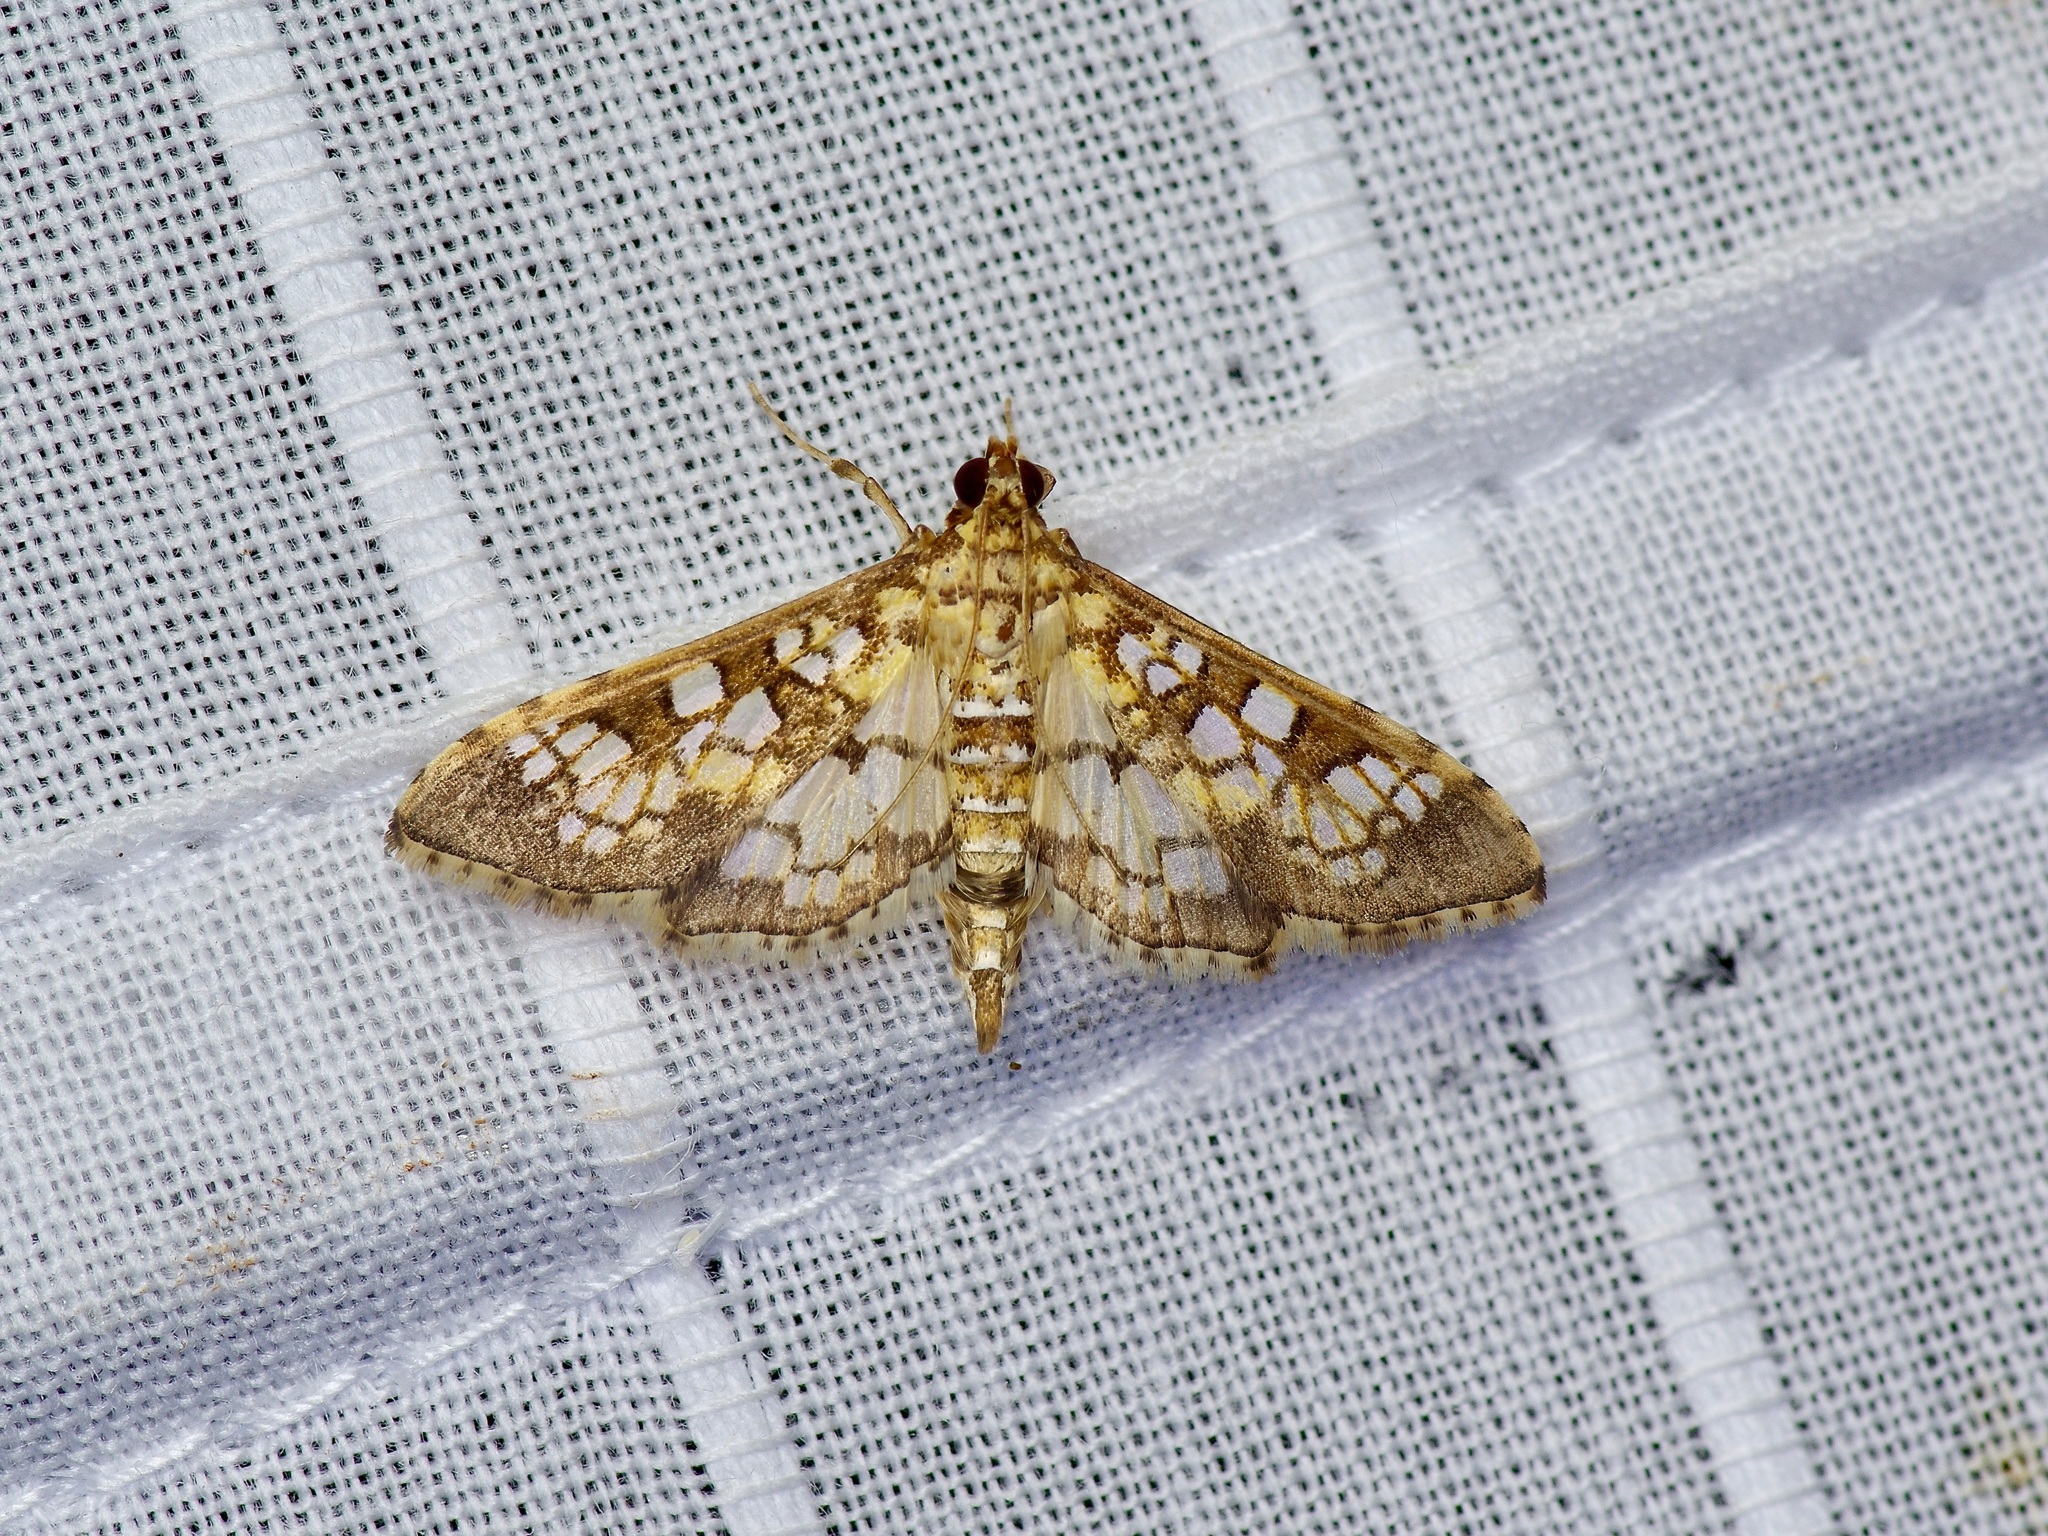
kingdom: Animalia
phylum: Arthropoda
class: Insecta
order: Lepidoptera
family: Crambidae
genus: Samea
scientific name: Samea ecclesialis
